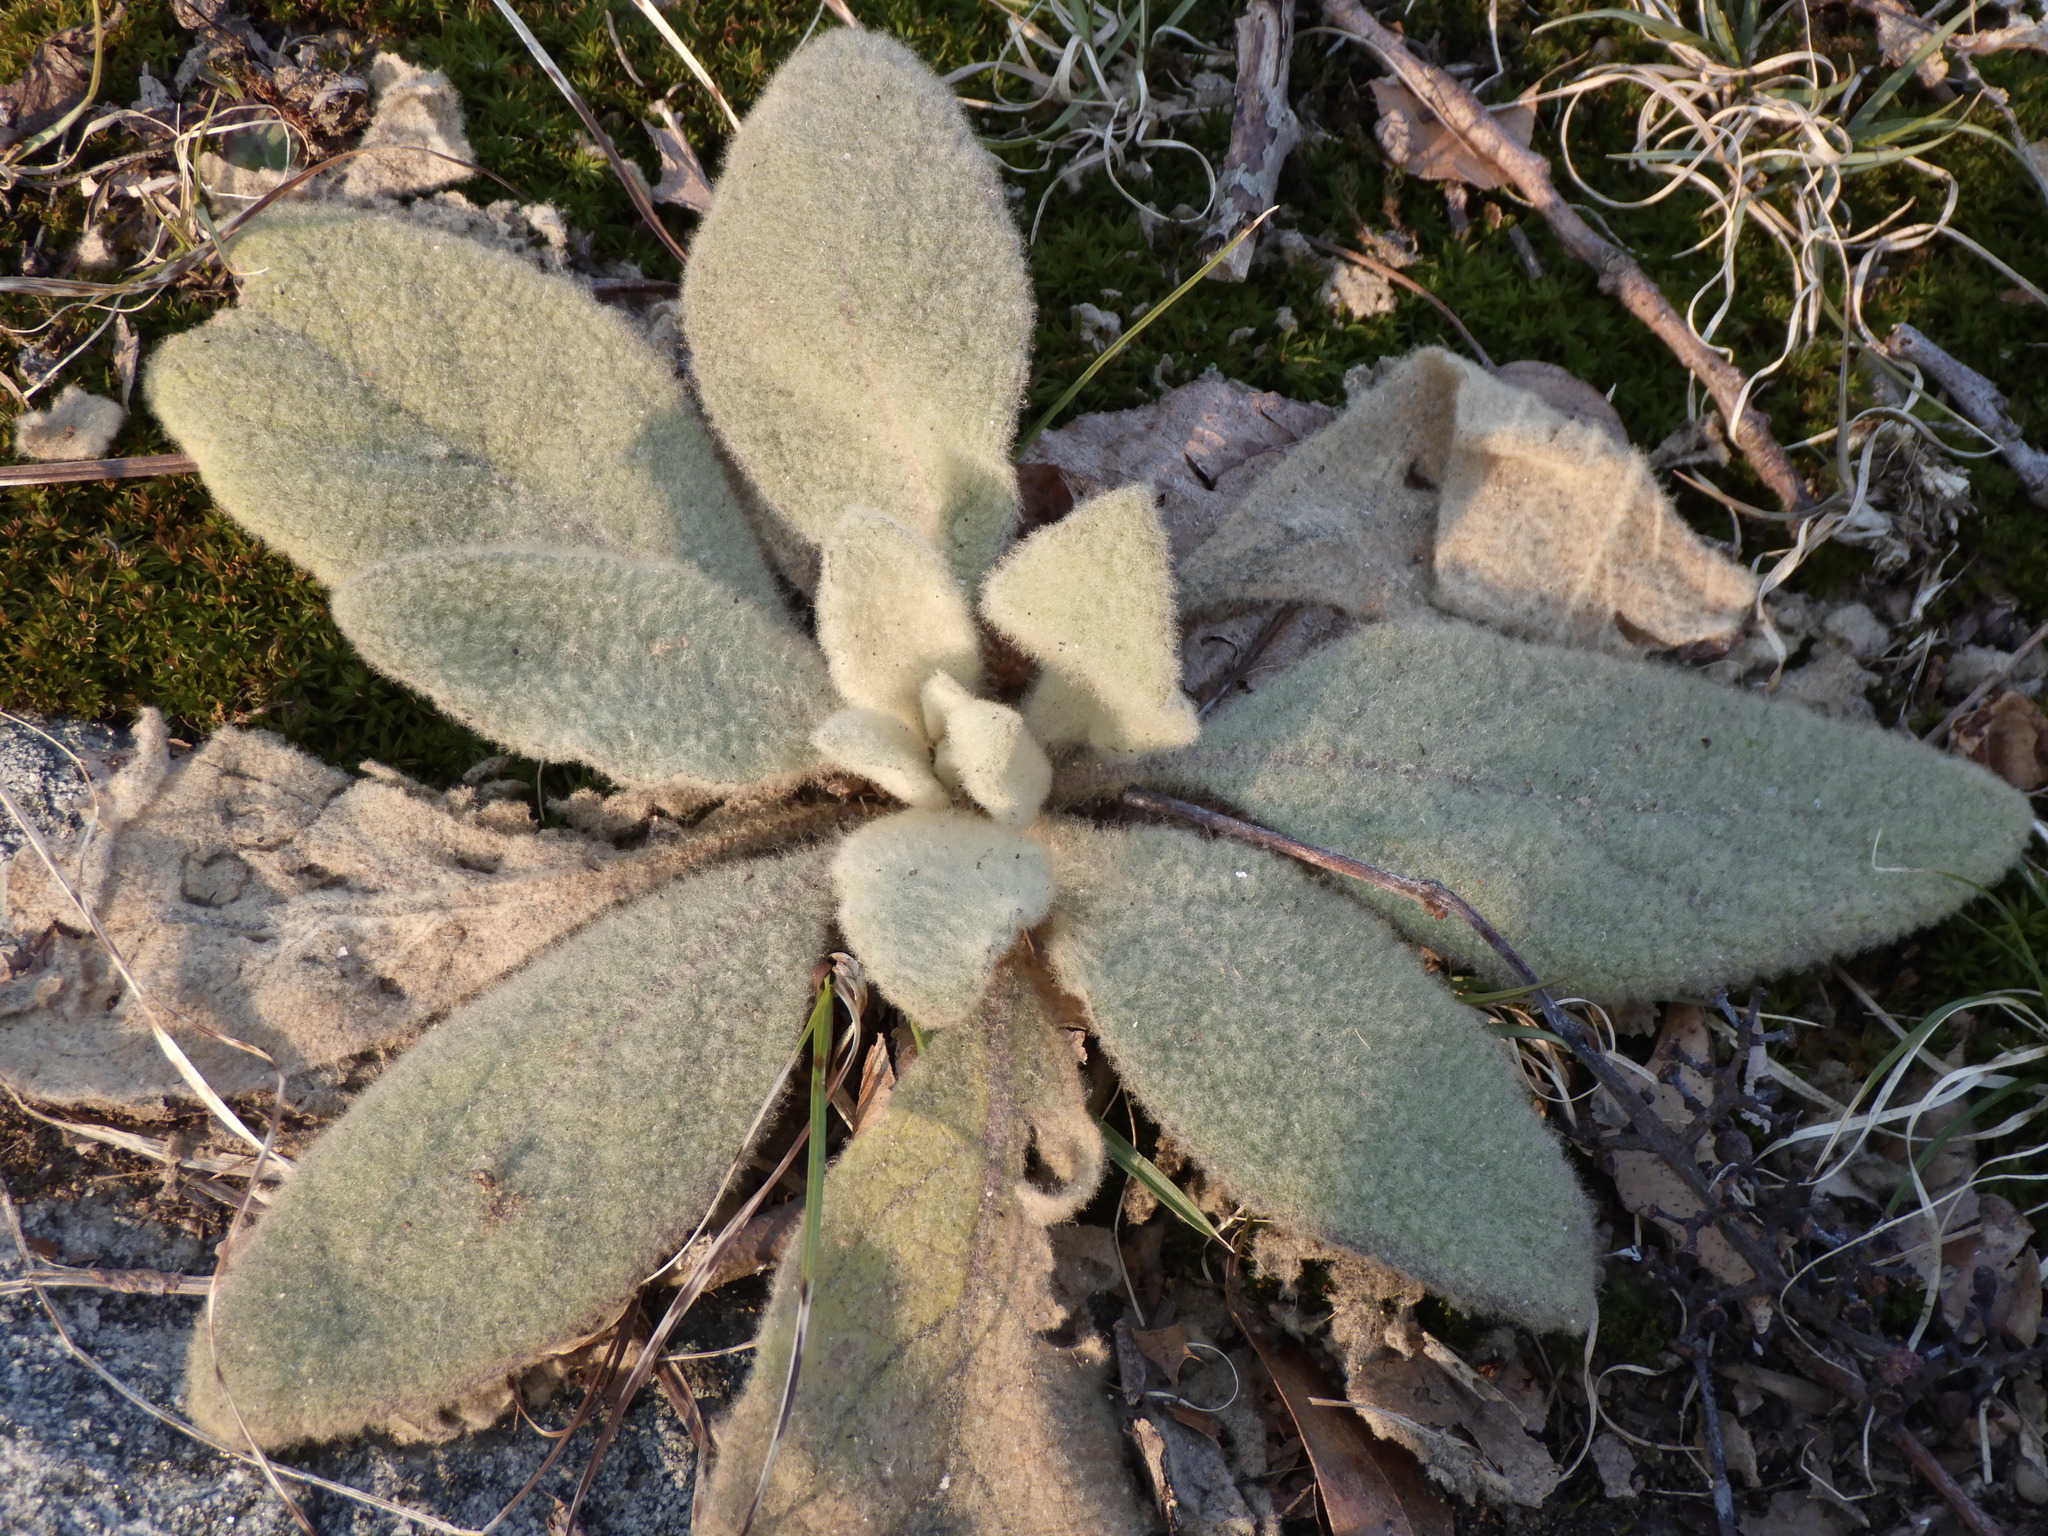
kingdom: Plantae
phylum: Tracheophyta
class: Magnoliopsida
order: Lamiales
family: Scrophulariaceae
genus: Verbascum
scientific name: Verbascum thapsus
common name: Common mullein
